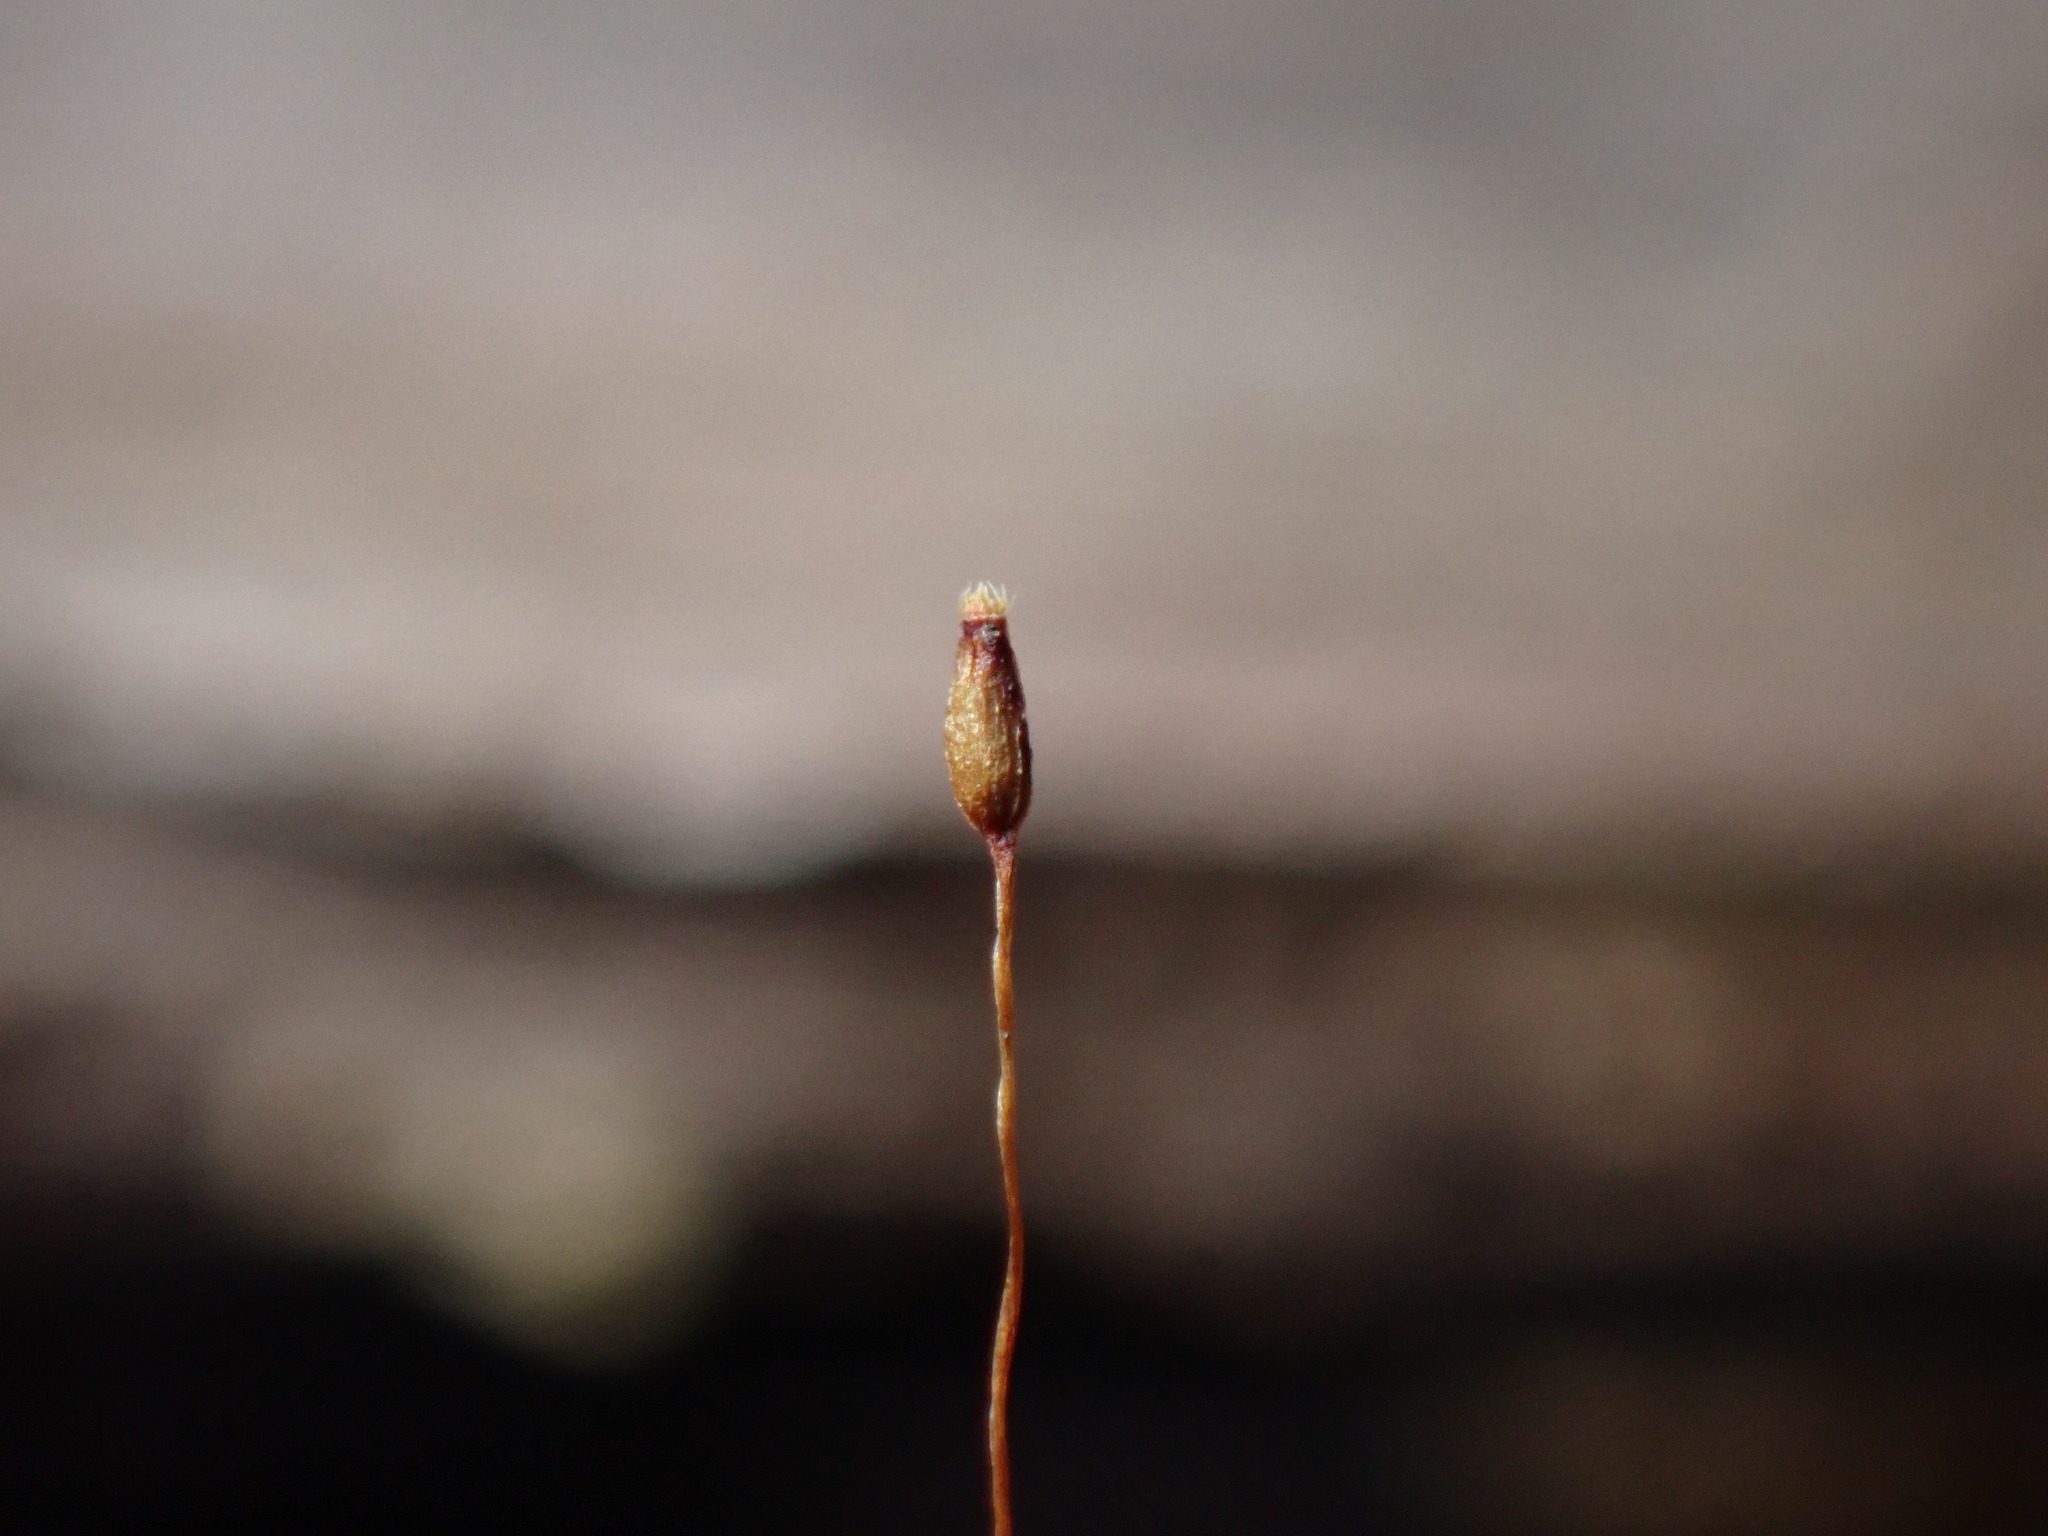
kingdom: Plantae
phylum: Bryophyta
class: Bryopsida
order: Hypnales
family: Pylaisiadelphaceae
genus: Platygyrium
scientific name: Platygyrium repens
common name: Flat-brocade moss
